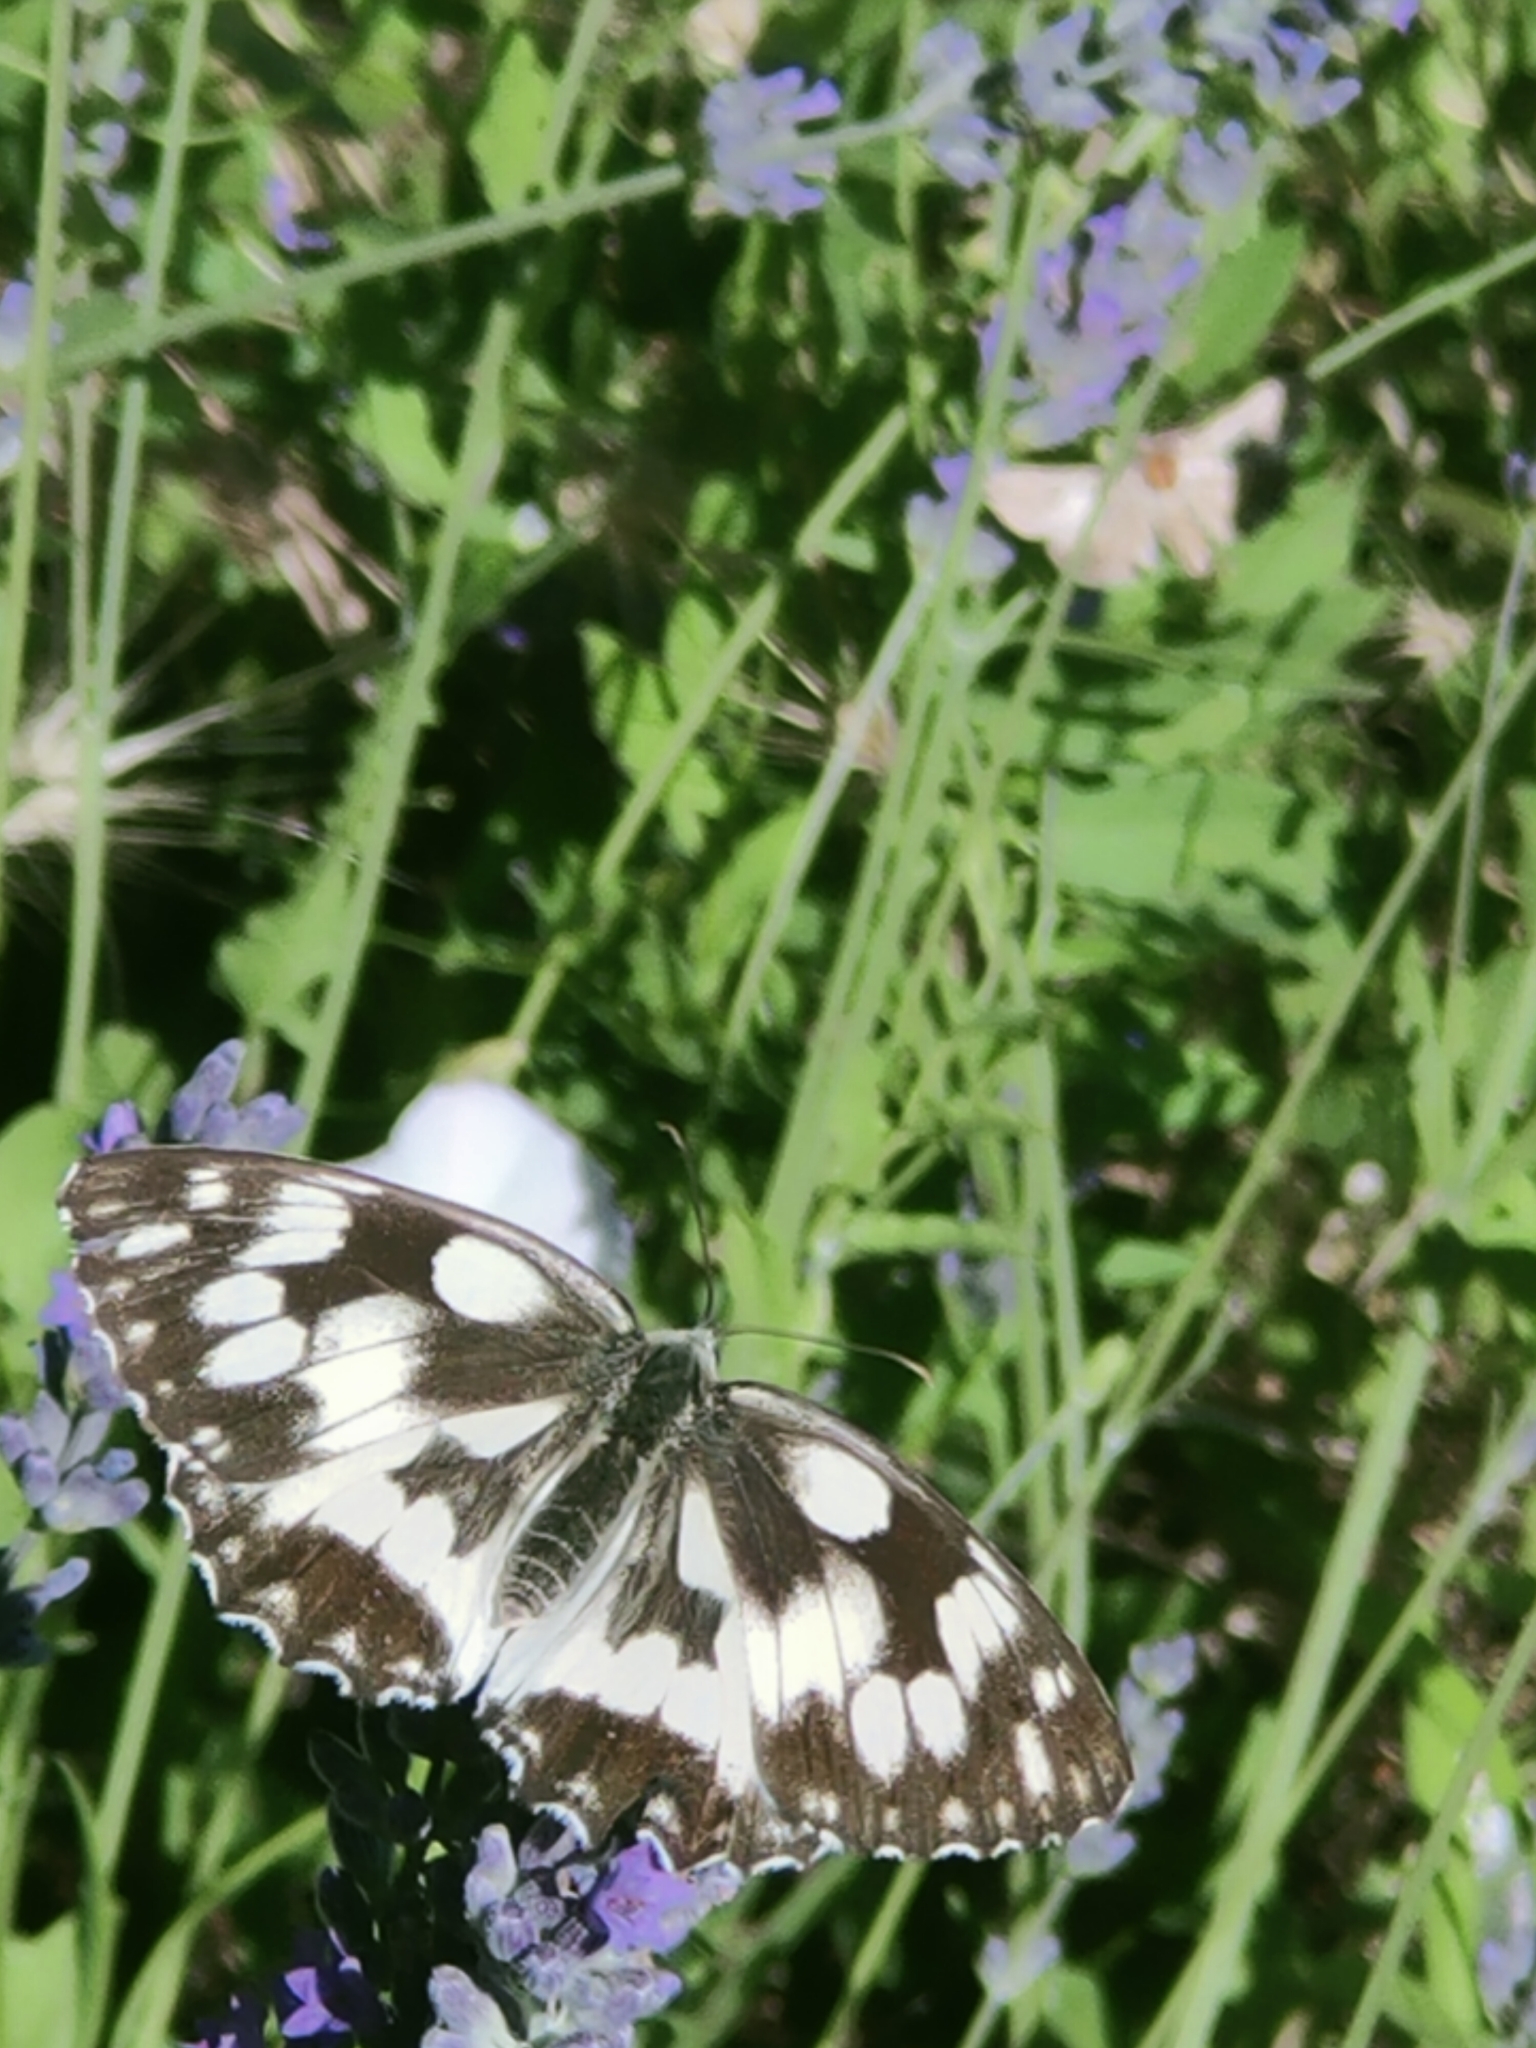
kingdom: Animalia
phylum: Arthropoda
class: Insecta
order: Lepidoptera
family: Nymphalidae
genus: Melanargia
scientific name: Melanargia galathea
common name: Marbled white
